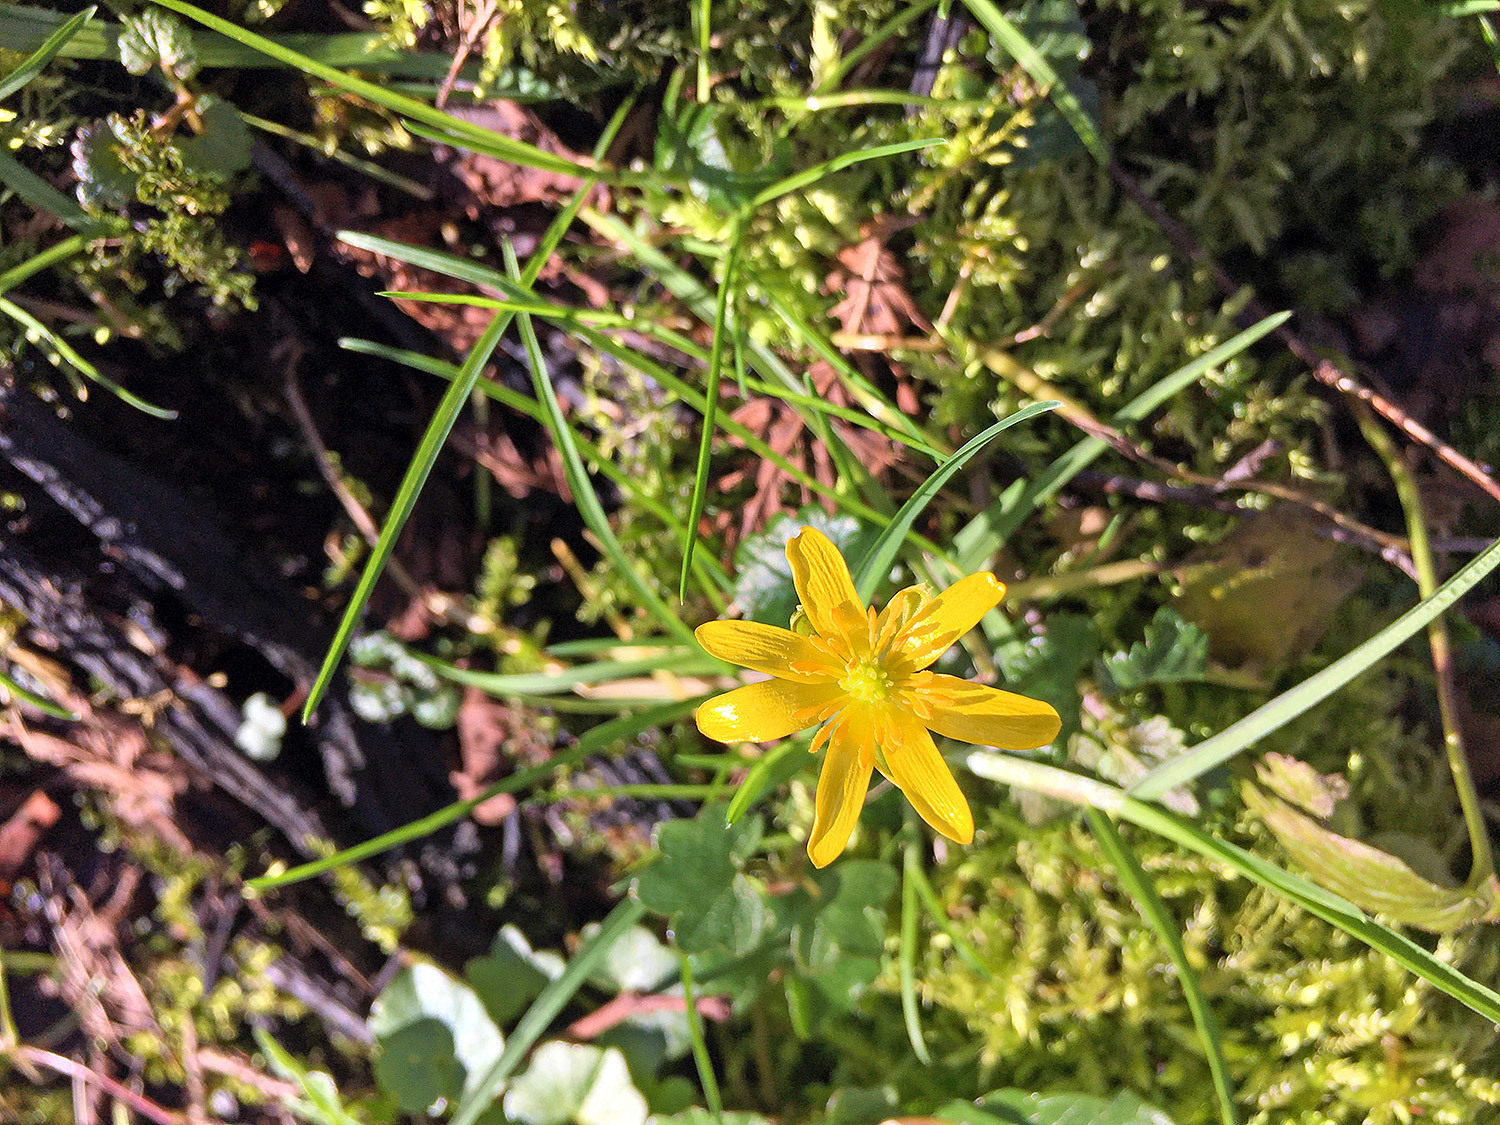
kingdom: Plantae
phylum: Tracheophyta
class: Magnoliopsida
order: Ranunculales
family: Ranunculaceae
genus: Ficaria
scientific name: Ficaria verna
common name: Lesser celandine
